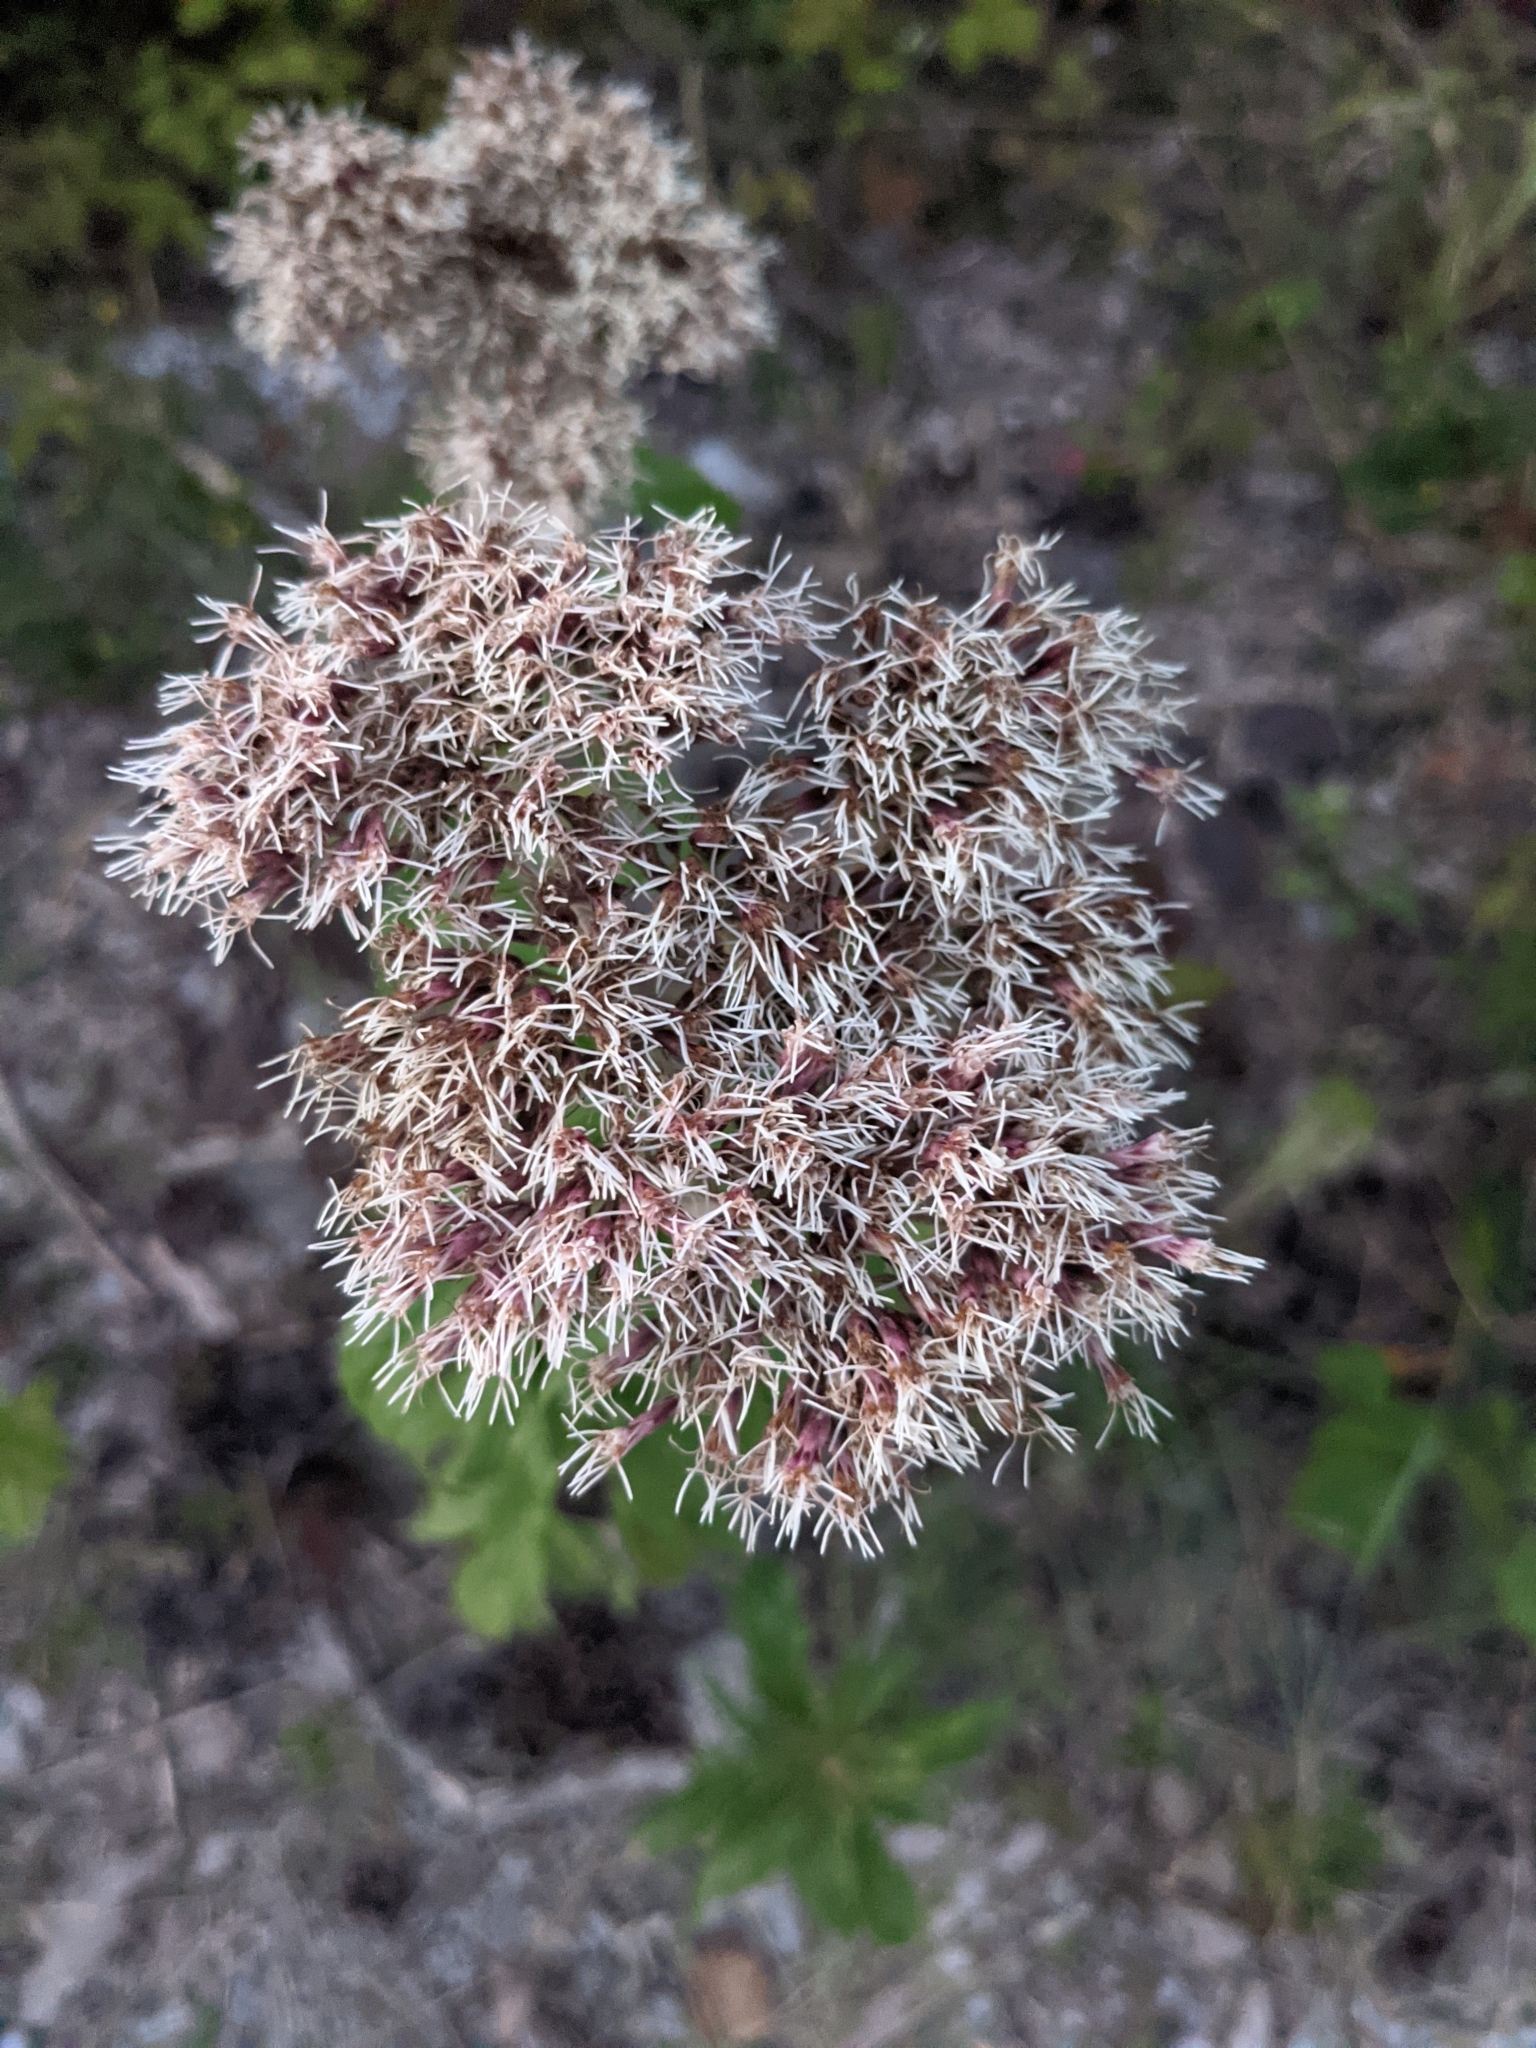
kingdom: Plantae
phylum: Tracheophyta
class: Magnoliopsida
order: Asterales
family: Asteraceae
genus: Eupatorium
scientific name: Eupatorium cannabinum
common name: Hemp-agrimony
